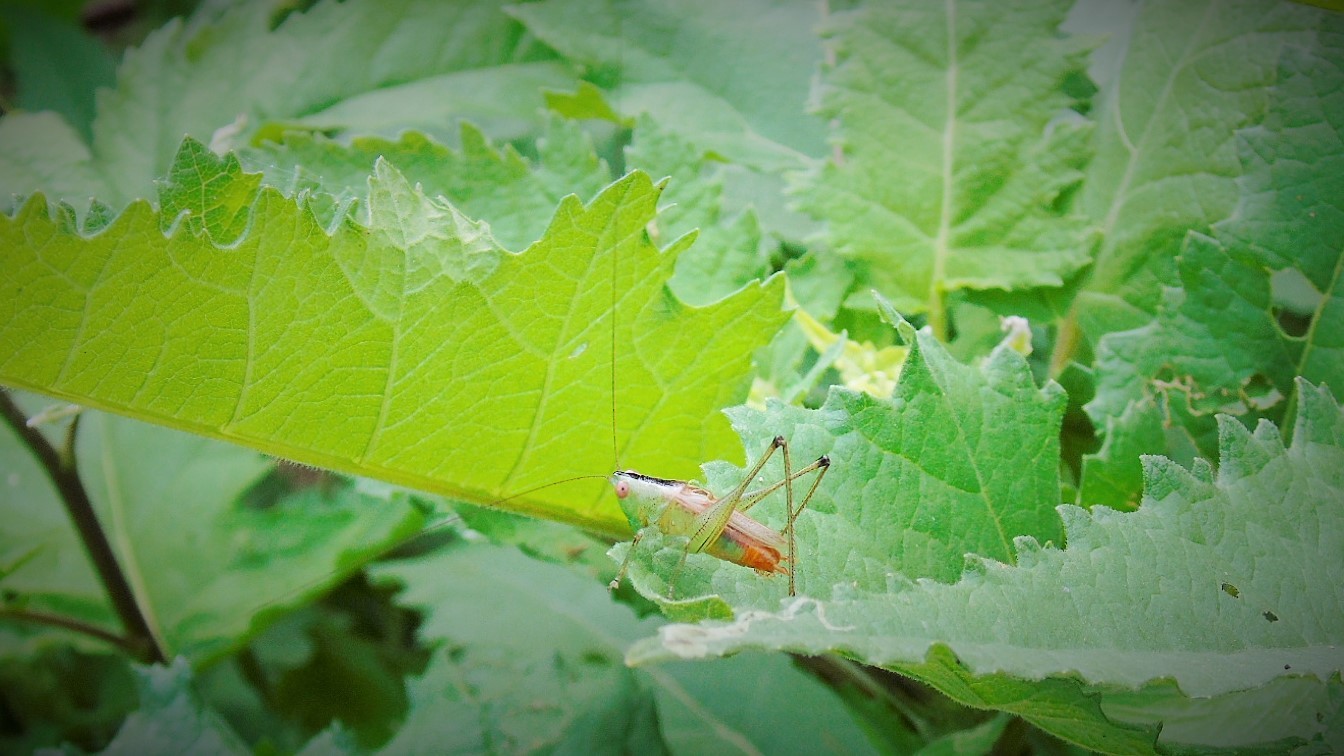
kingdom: Animalia
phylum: Arthropoda
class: Insecta
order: Orthoptera
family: Tettigoniidae
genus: Conocephalus
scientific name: Conocephalus
